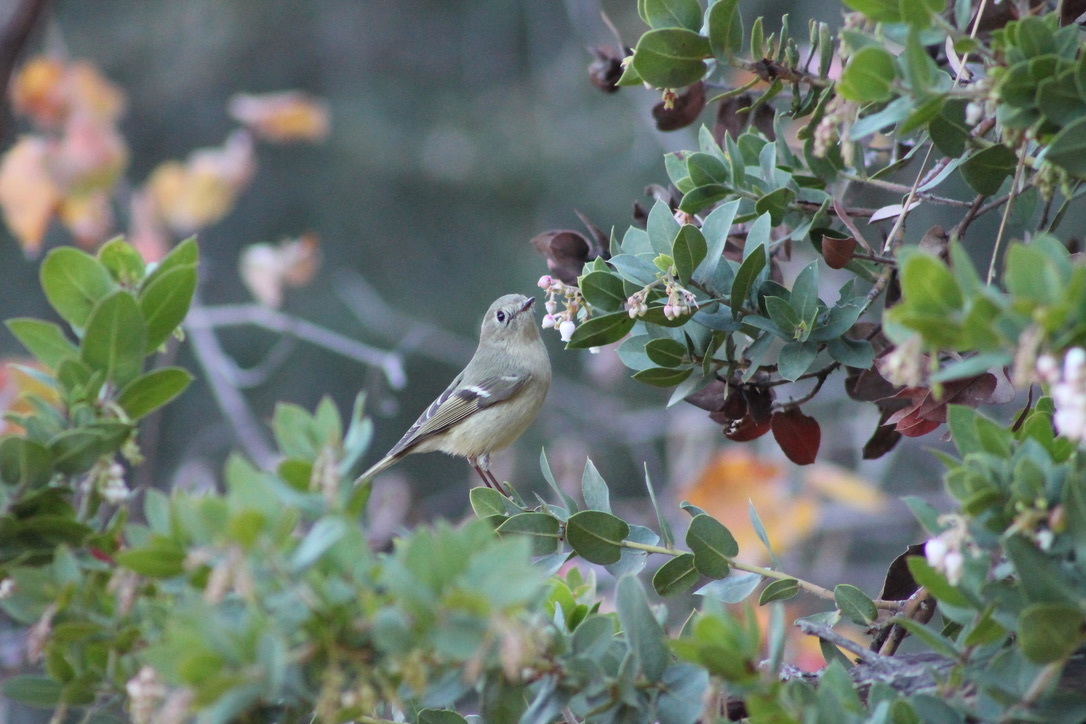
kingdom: Animalia
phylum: Chordata
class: Aves
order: Passeriformes
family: Regulidae
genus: Regulus
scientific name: Regulus calendula
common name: Ruby-crowned kinglet
